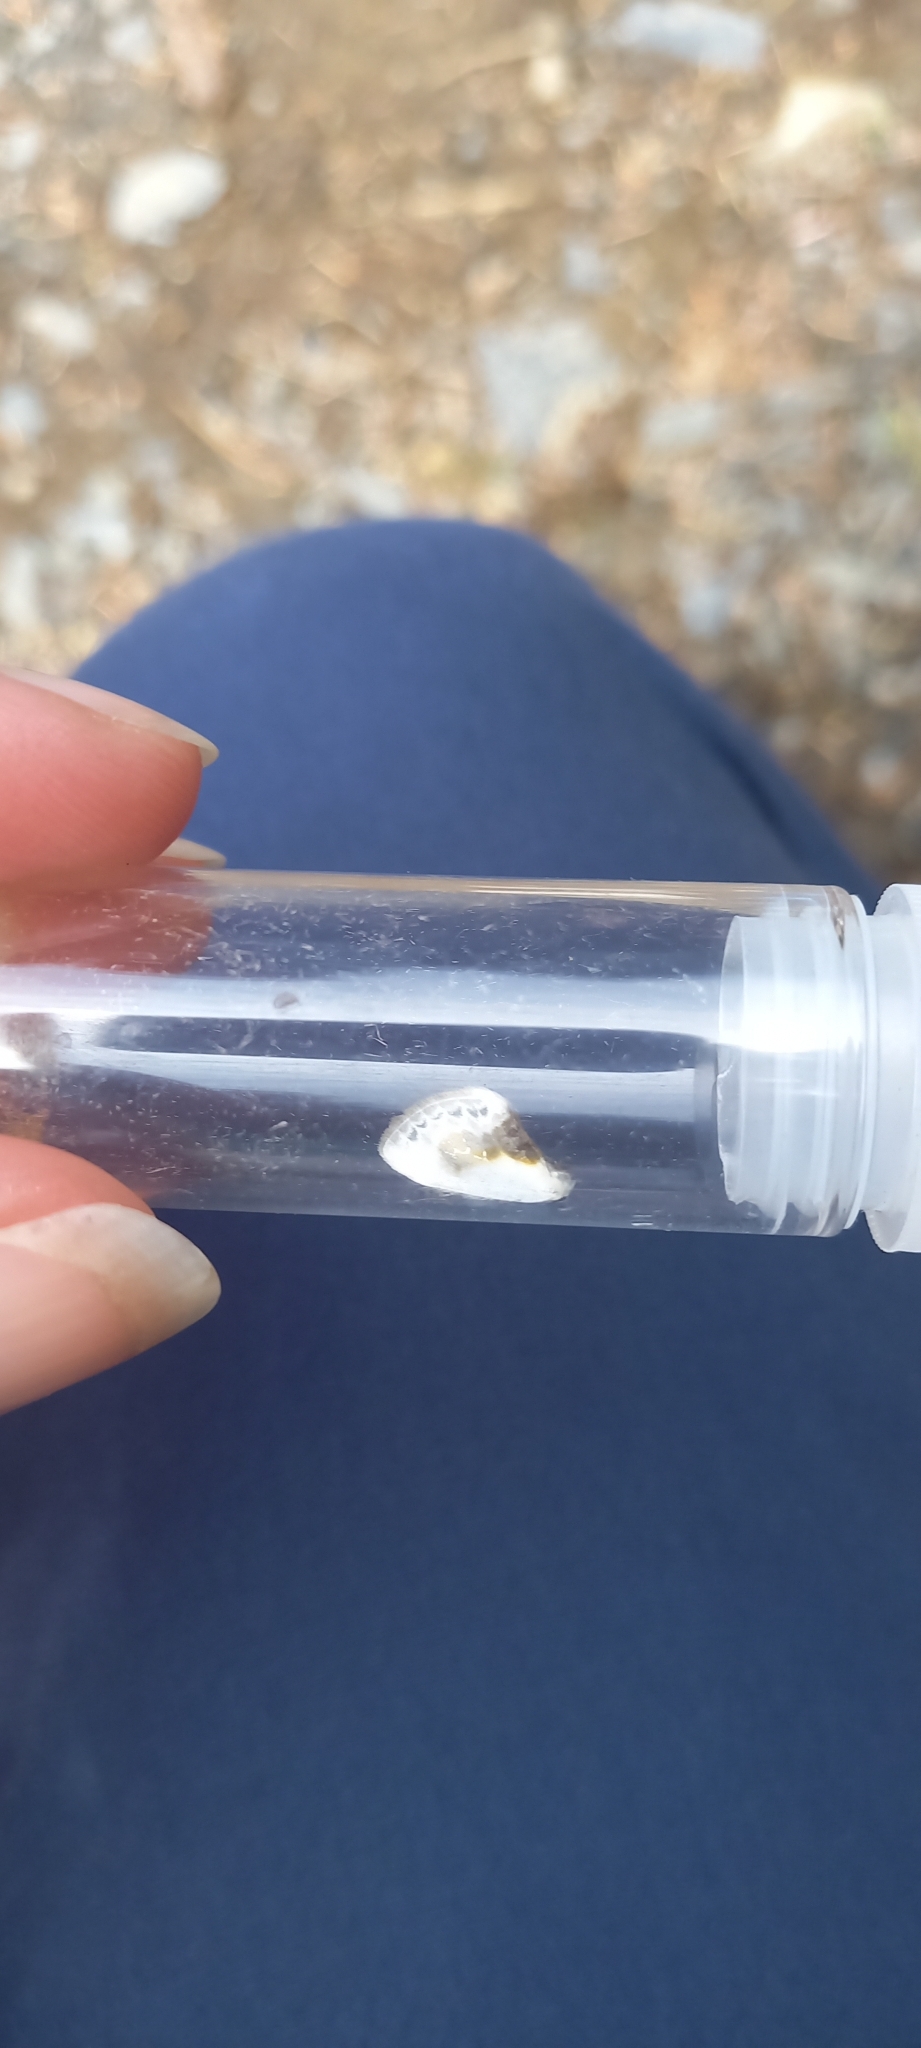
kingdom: Animalia
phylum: Arthropoda
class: Insecta
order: Lepidoptera
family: Drepanidae
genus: Cilix
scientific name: Cilix glaucata
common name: Chinese character
